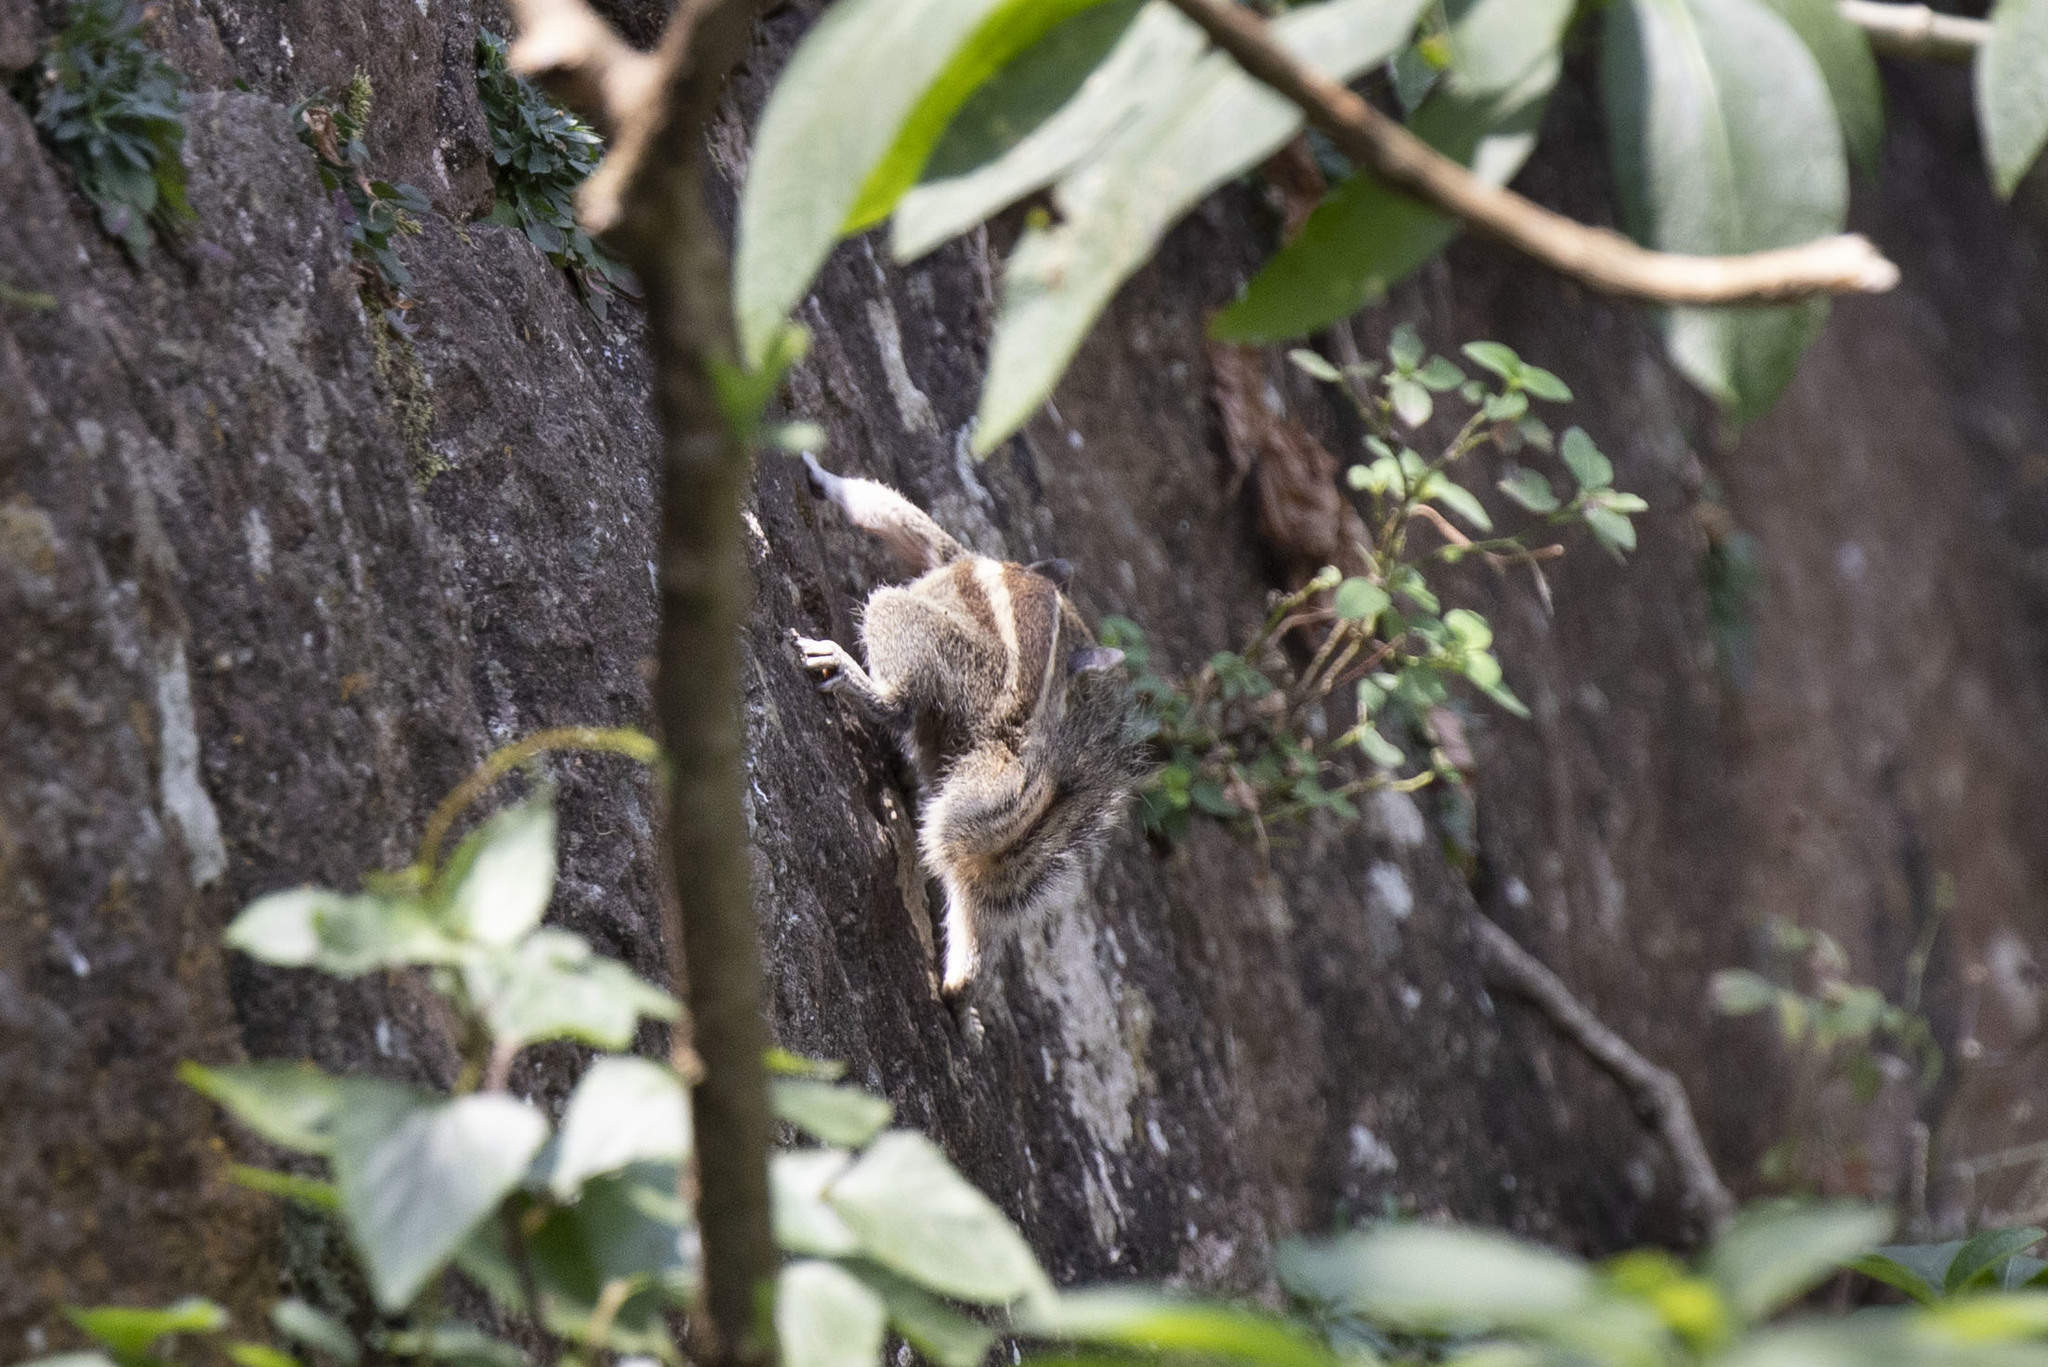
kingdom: Animalia
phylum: Chordata
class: Mammalia
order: Rodentia
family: Sciuridae
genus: Funambulus
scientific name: Funambulus palmarum
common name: Indian palm squirrel
